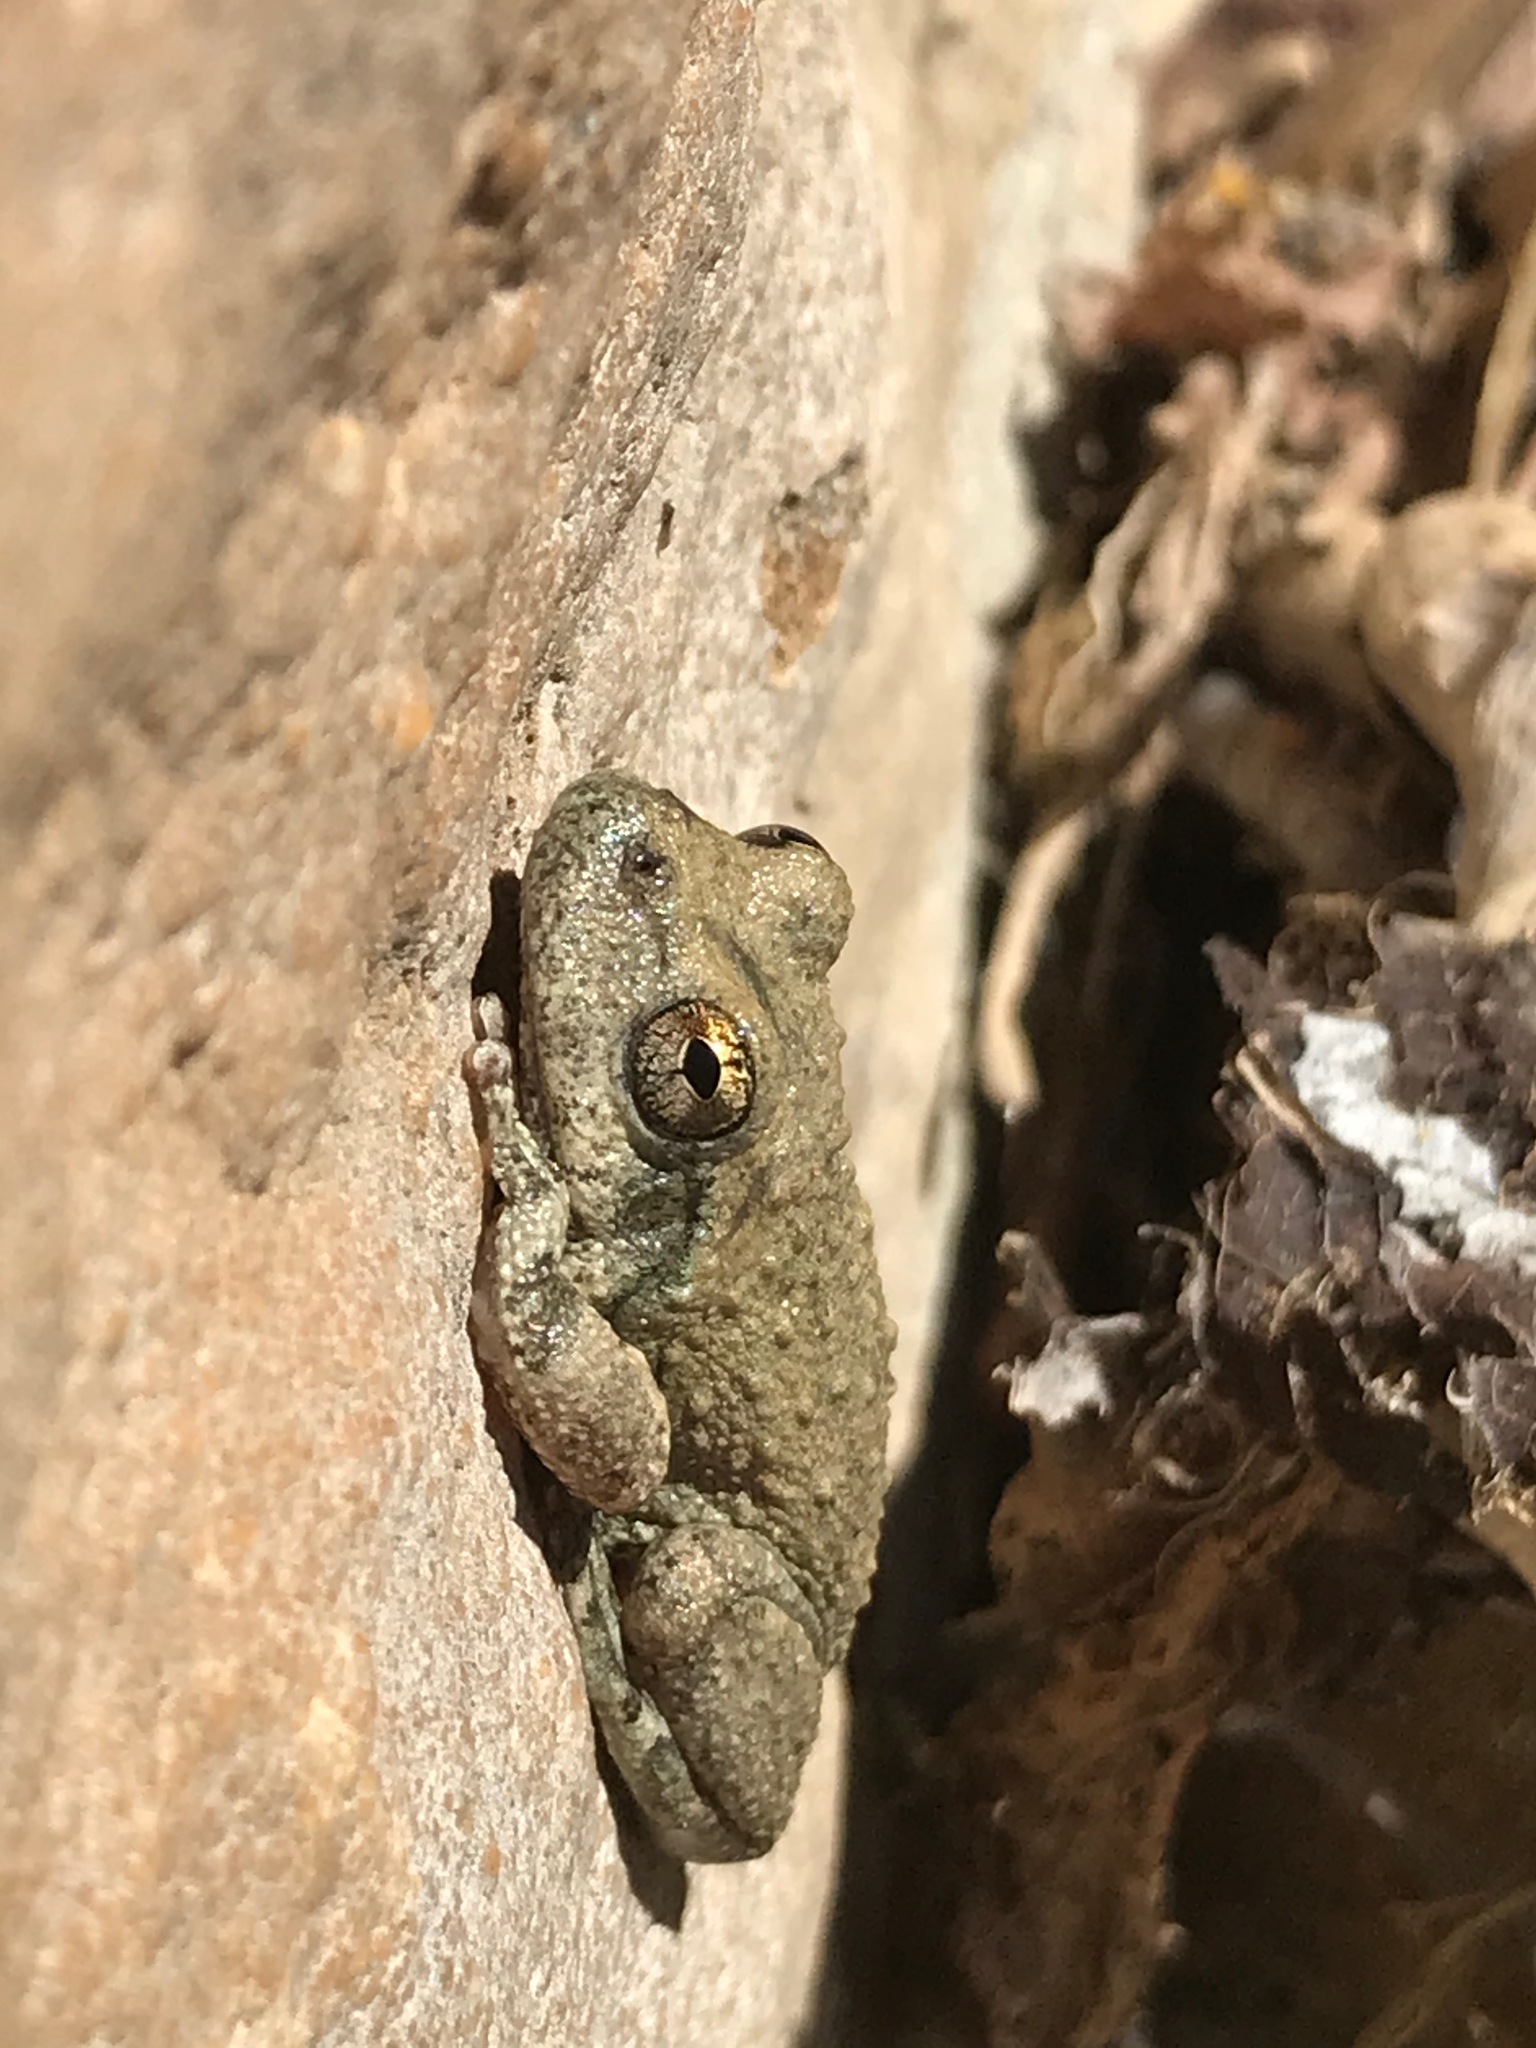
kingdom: Animalia
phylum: Chordata
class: Amphibia
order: Anura
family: Hylidae
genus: Pseudacris
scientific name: Pseudacris cadaverina
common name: California chorus frog
